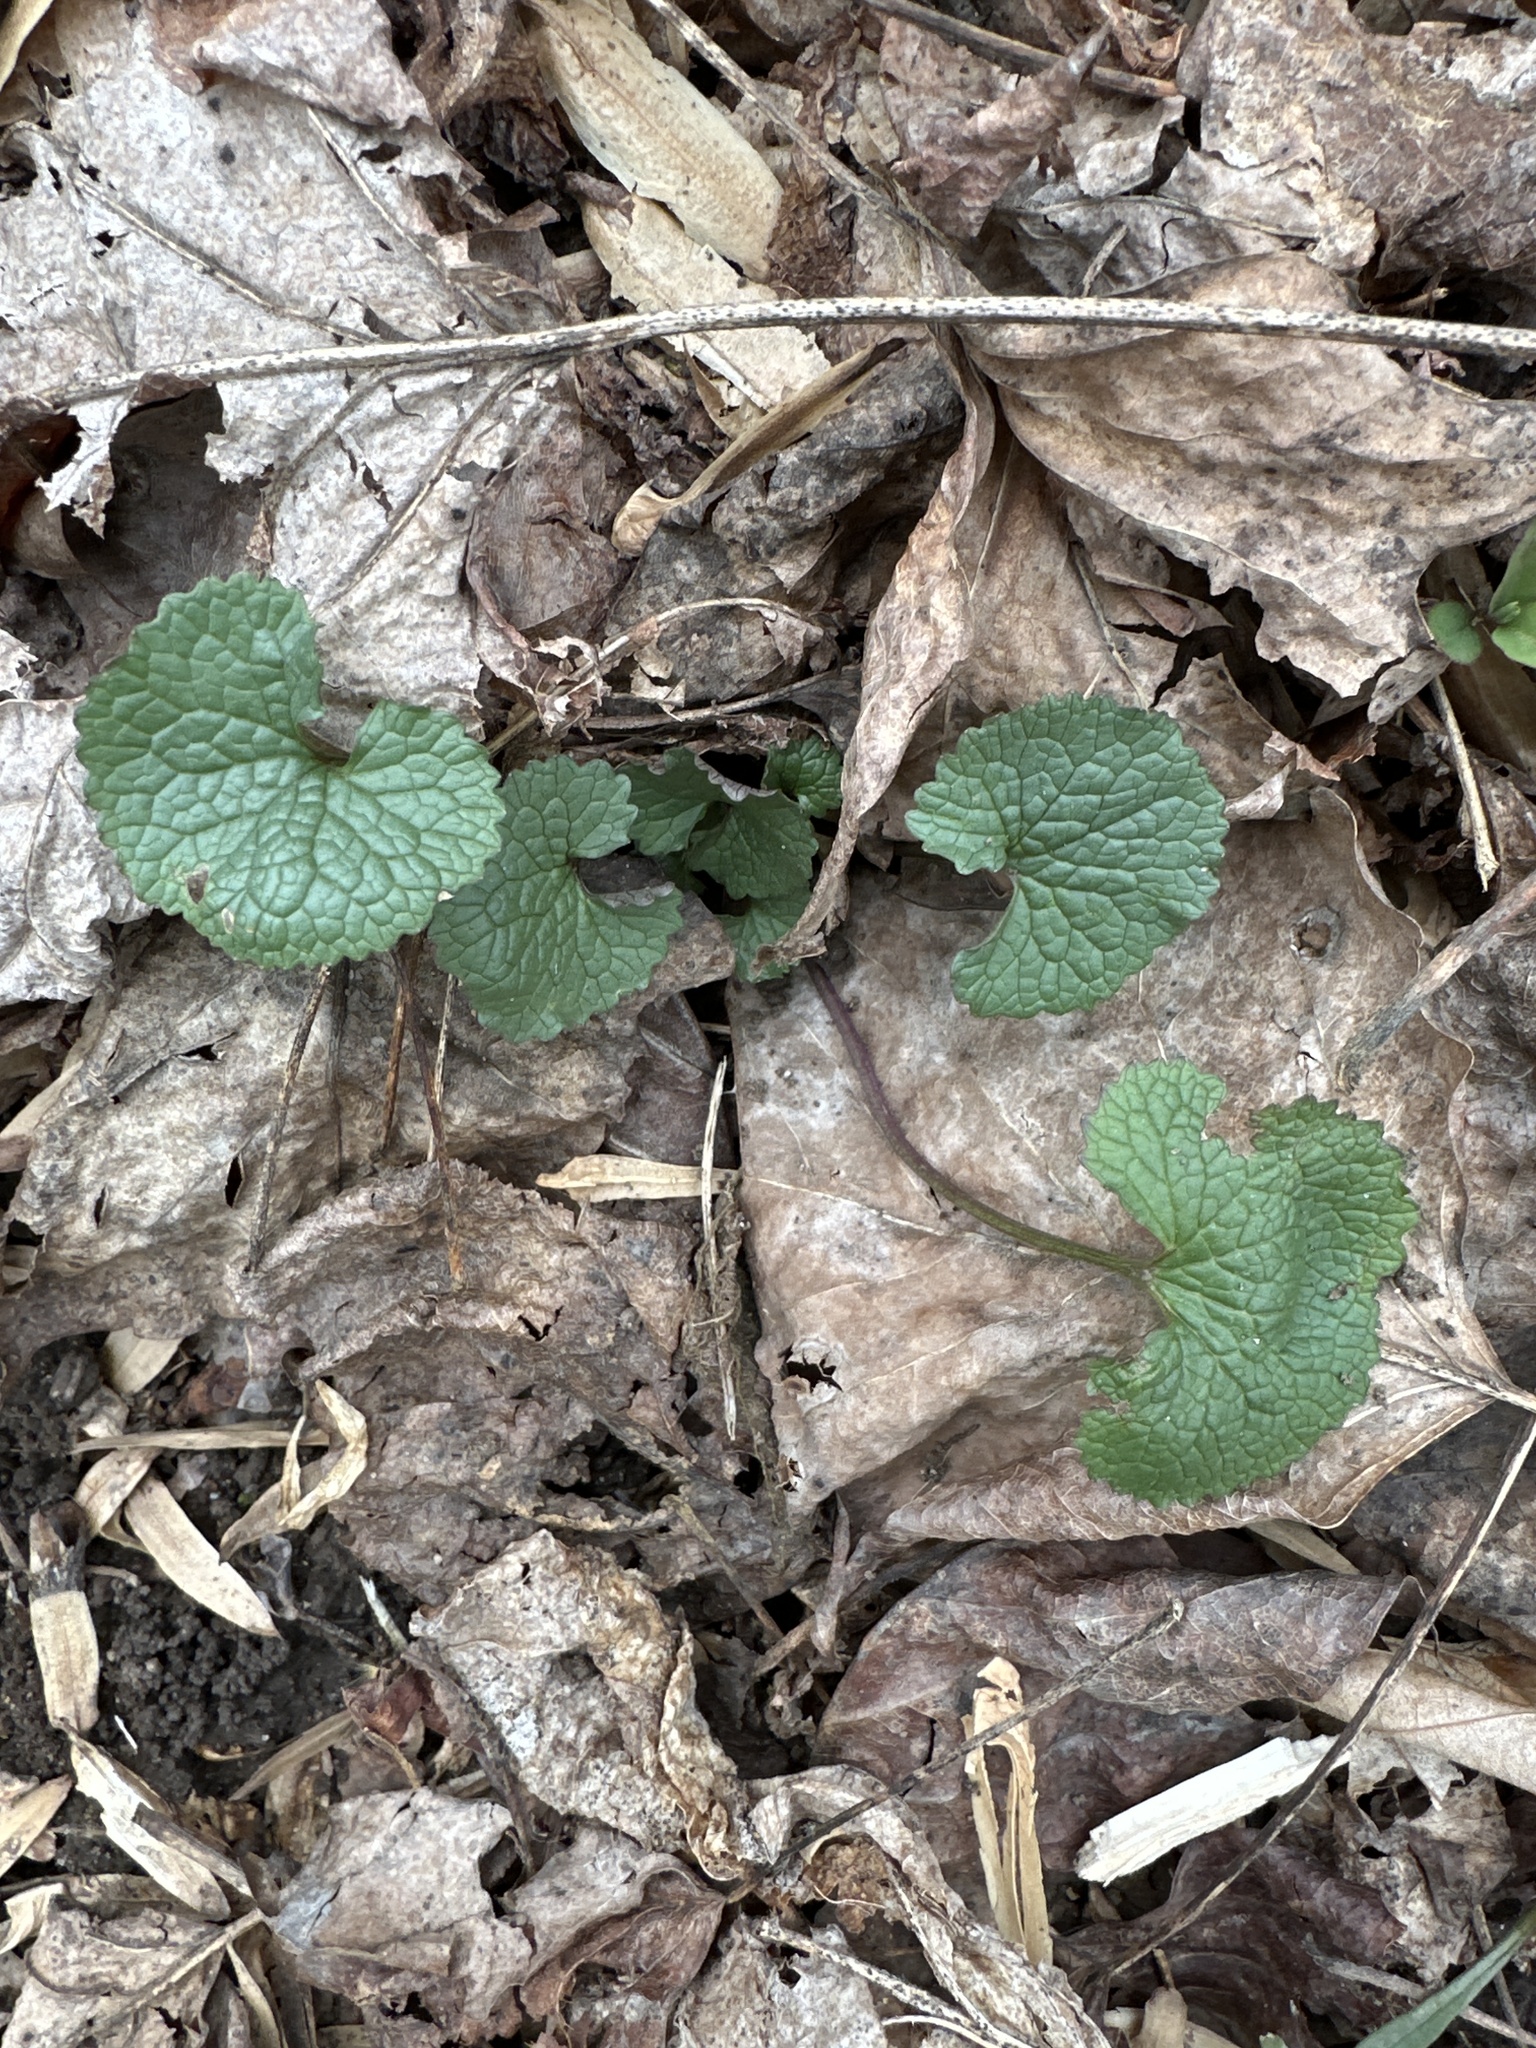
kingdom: Plantae
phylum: Tracheophyta
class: Magnoliopsida
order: Brassicales
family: Brassicaceae
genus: Alliaria
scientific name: Alliaria petiolata
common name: Garlic mustard
